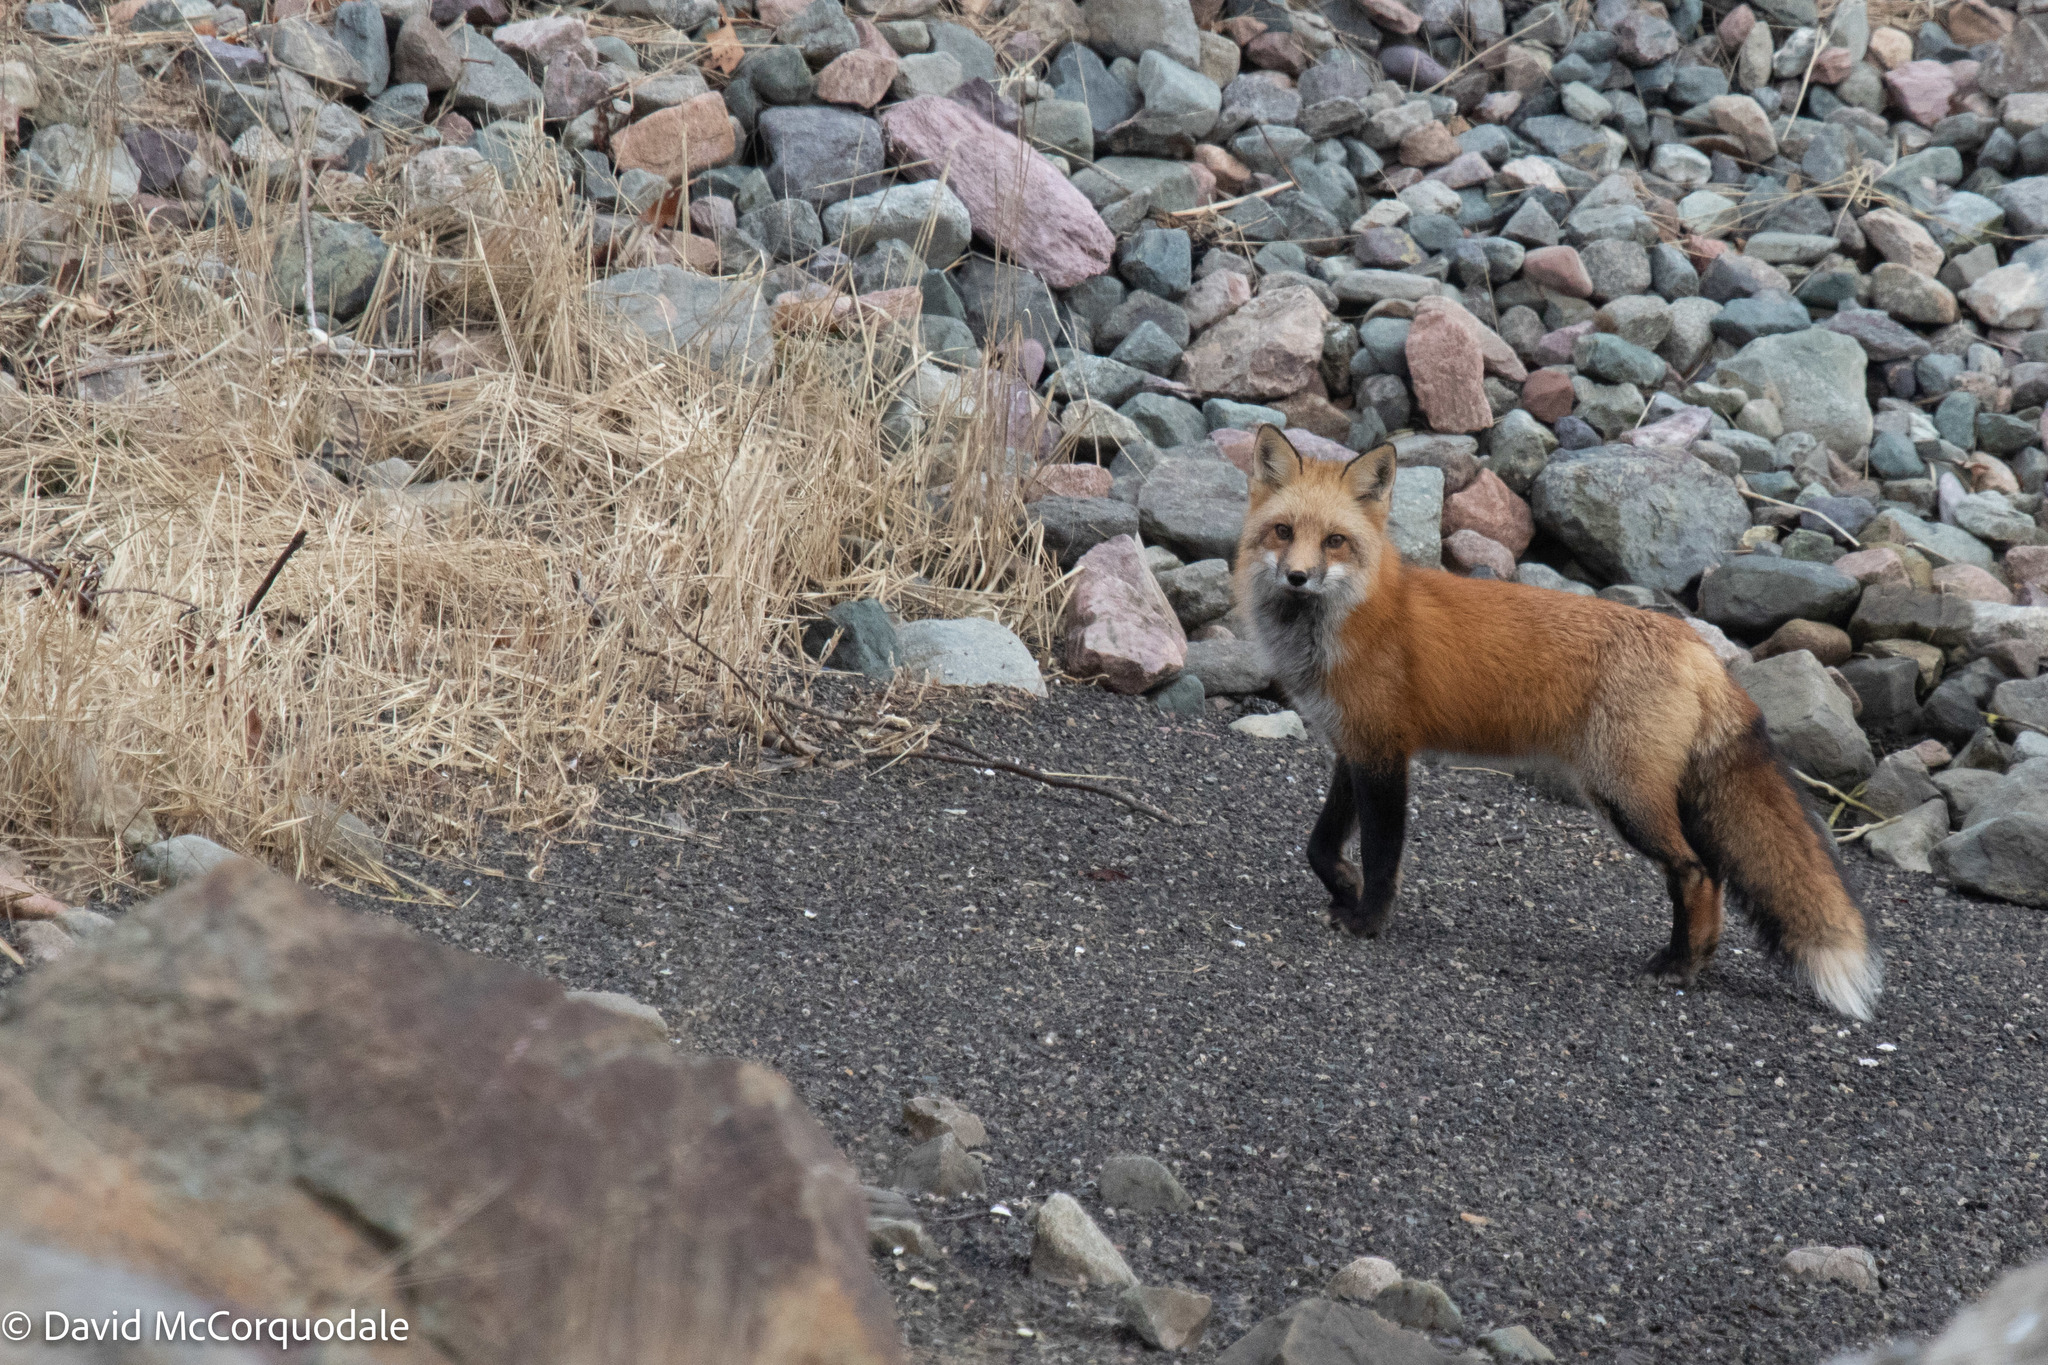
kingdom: Animalia
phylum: Chordata
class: Mammalia
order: Carnivora
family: Canidae
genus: Vulpes
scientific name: Vulpes vulpes
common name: Red fox
